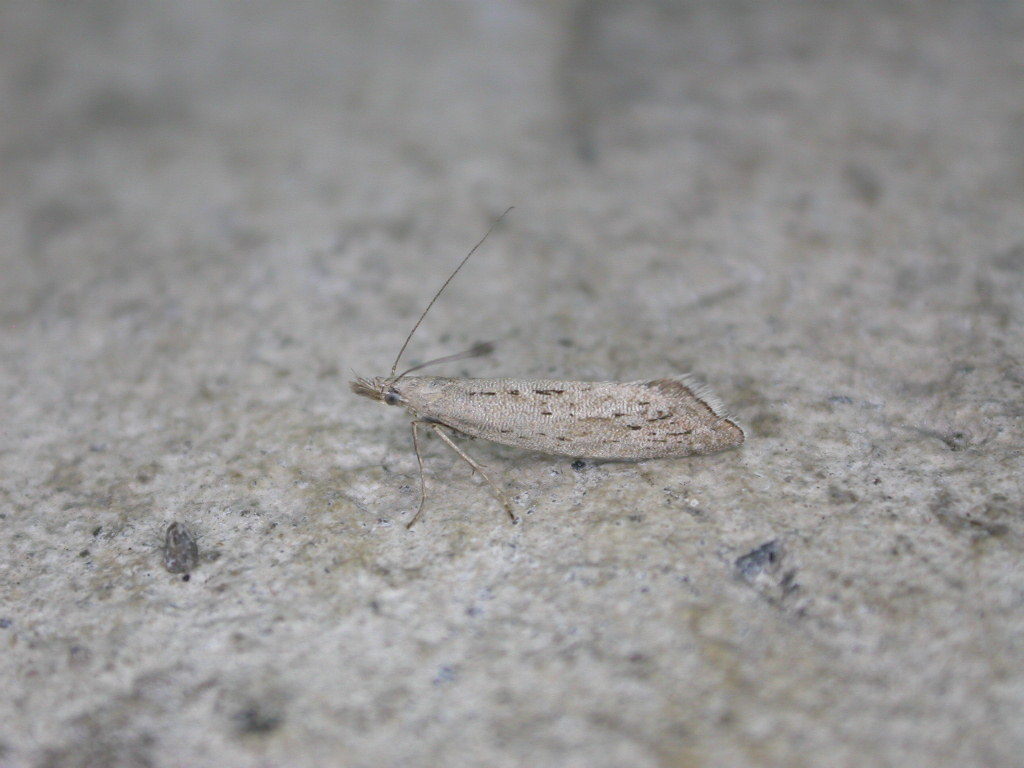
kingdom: Animalia
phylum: Arthropoda
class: Insecta
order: Lepidoptera
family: Glyphipterigidae
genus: Glyphipterix
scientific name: Glyphipterix achlyoessa
